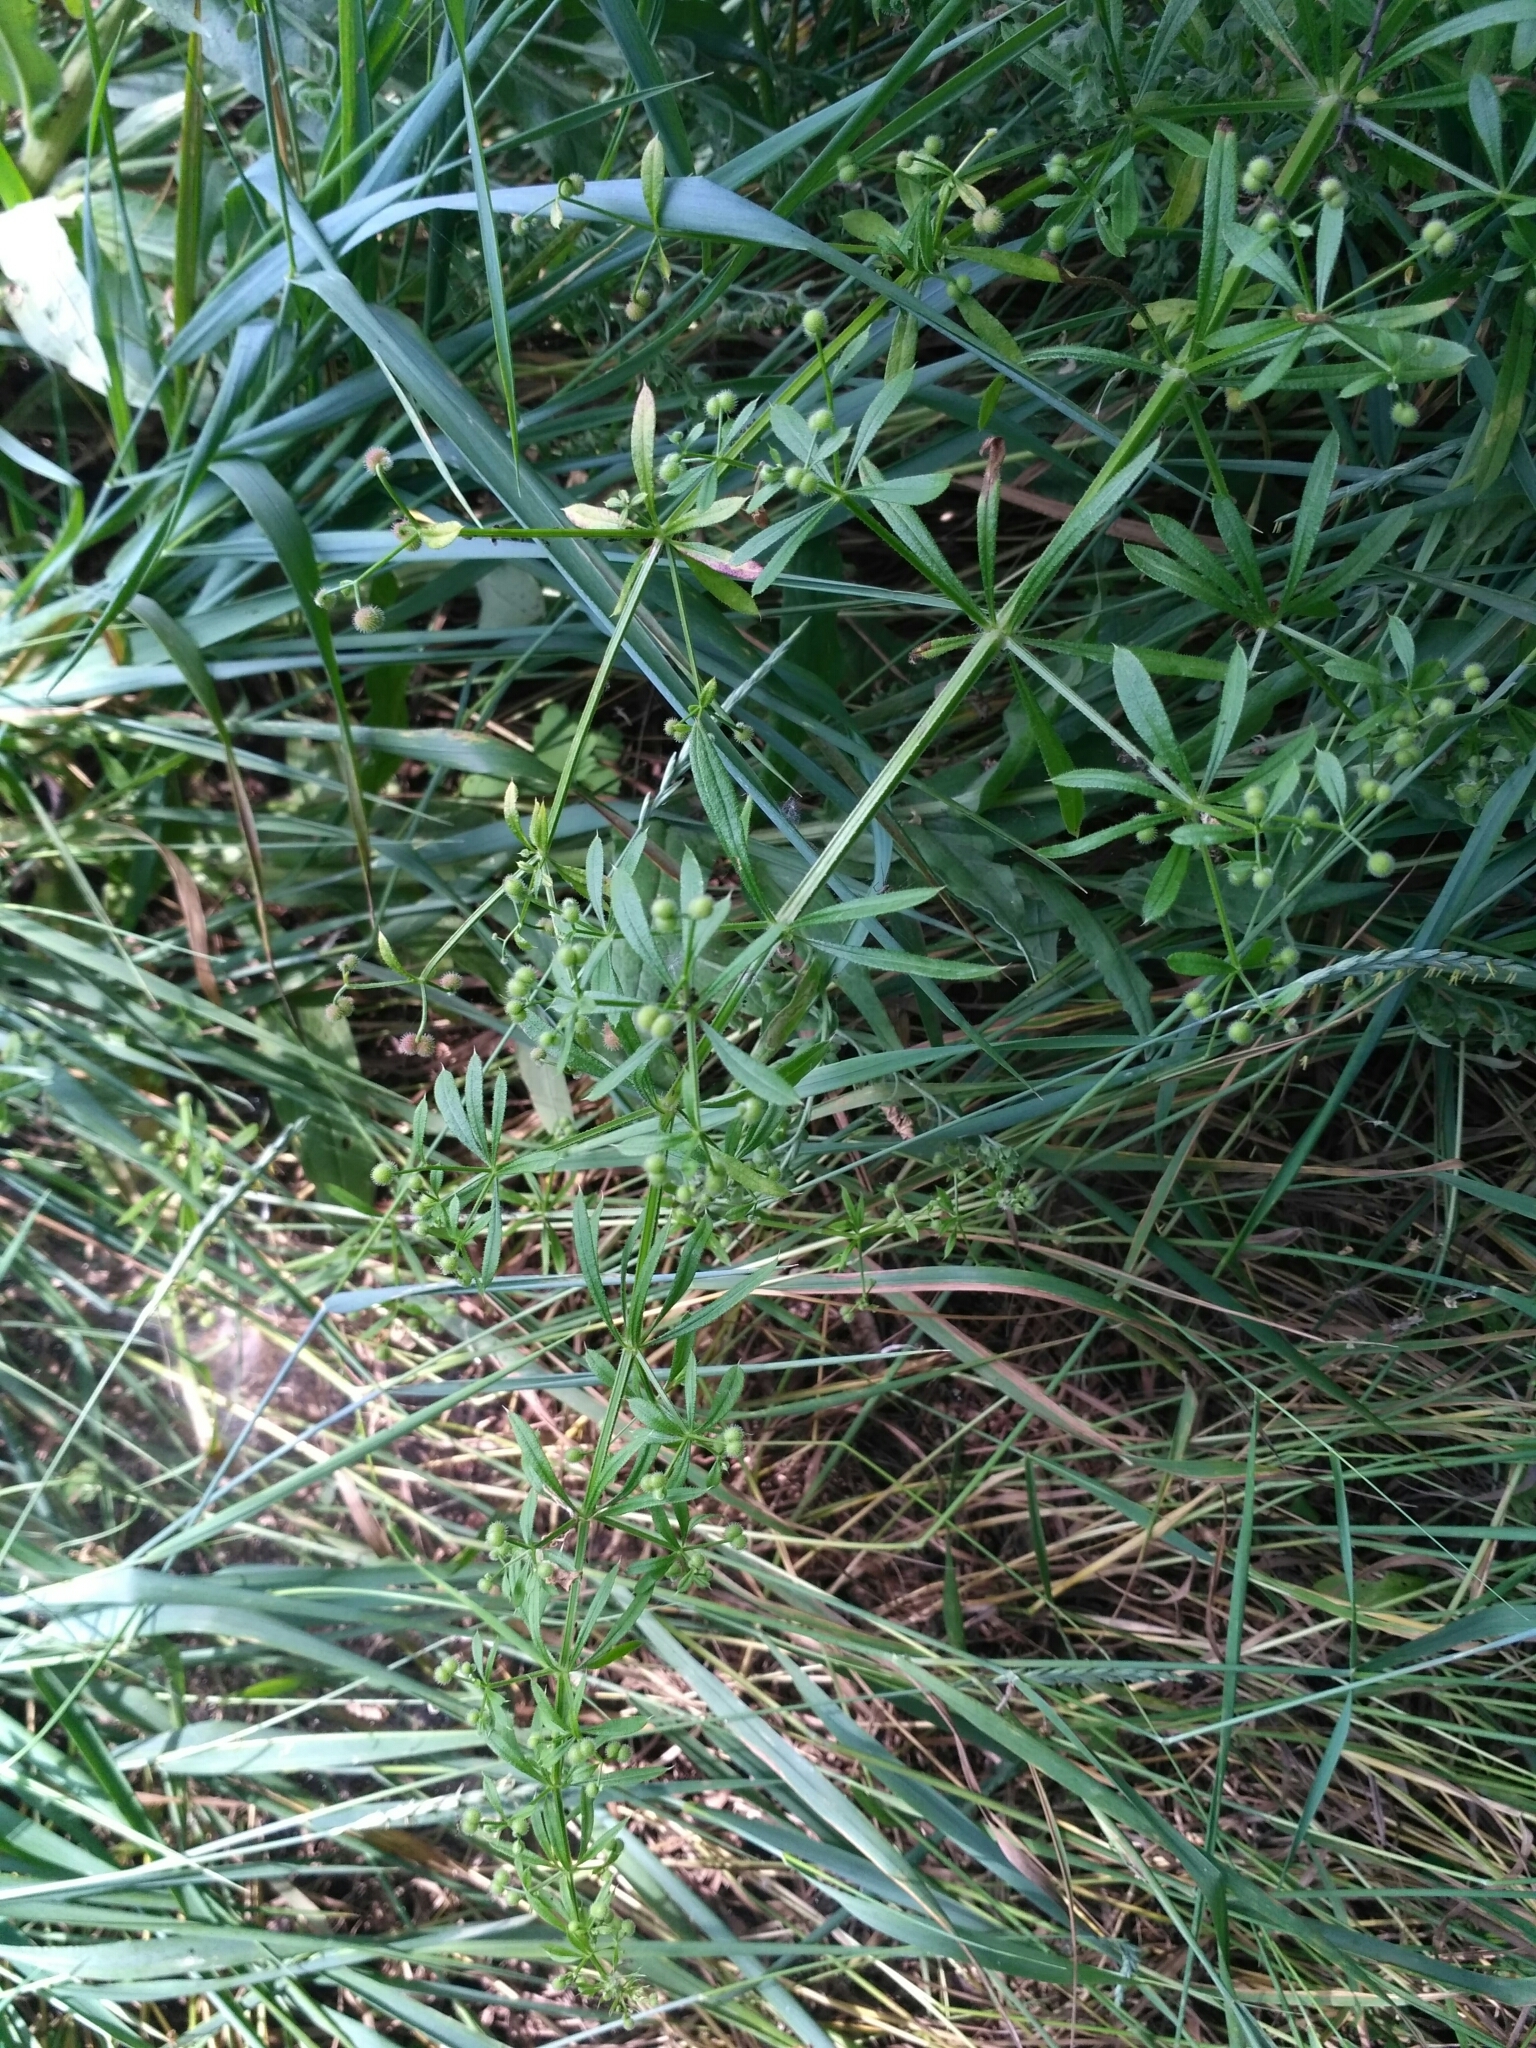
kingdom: Plantae
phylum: Tracheophyta
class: Magnoliopsida
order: Gentianales
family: Rubiaceae
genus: Galium
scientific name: Galium aparine
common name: Cleavers
